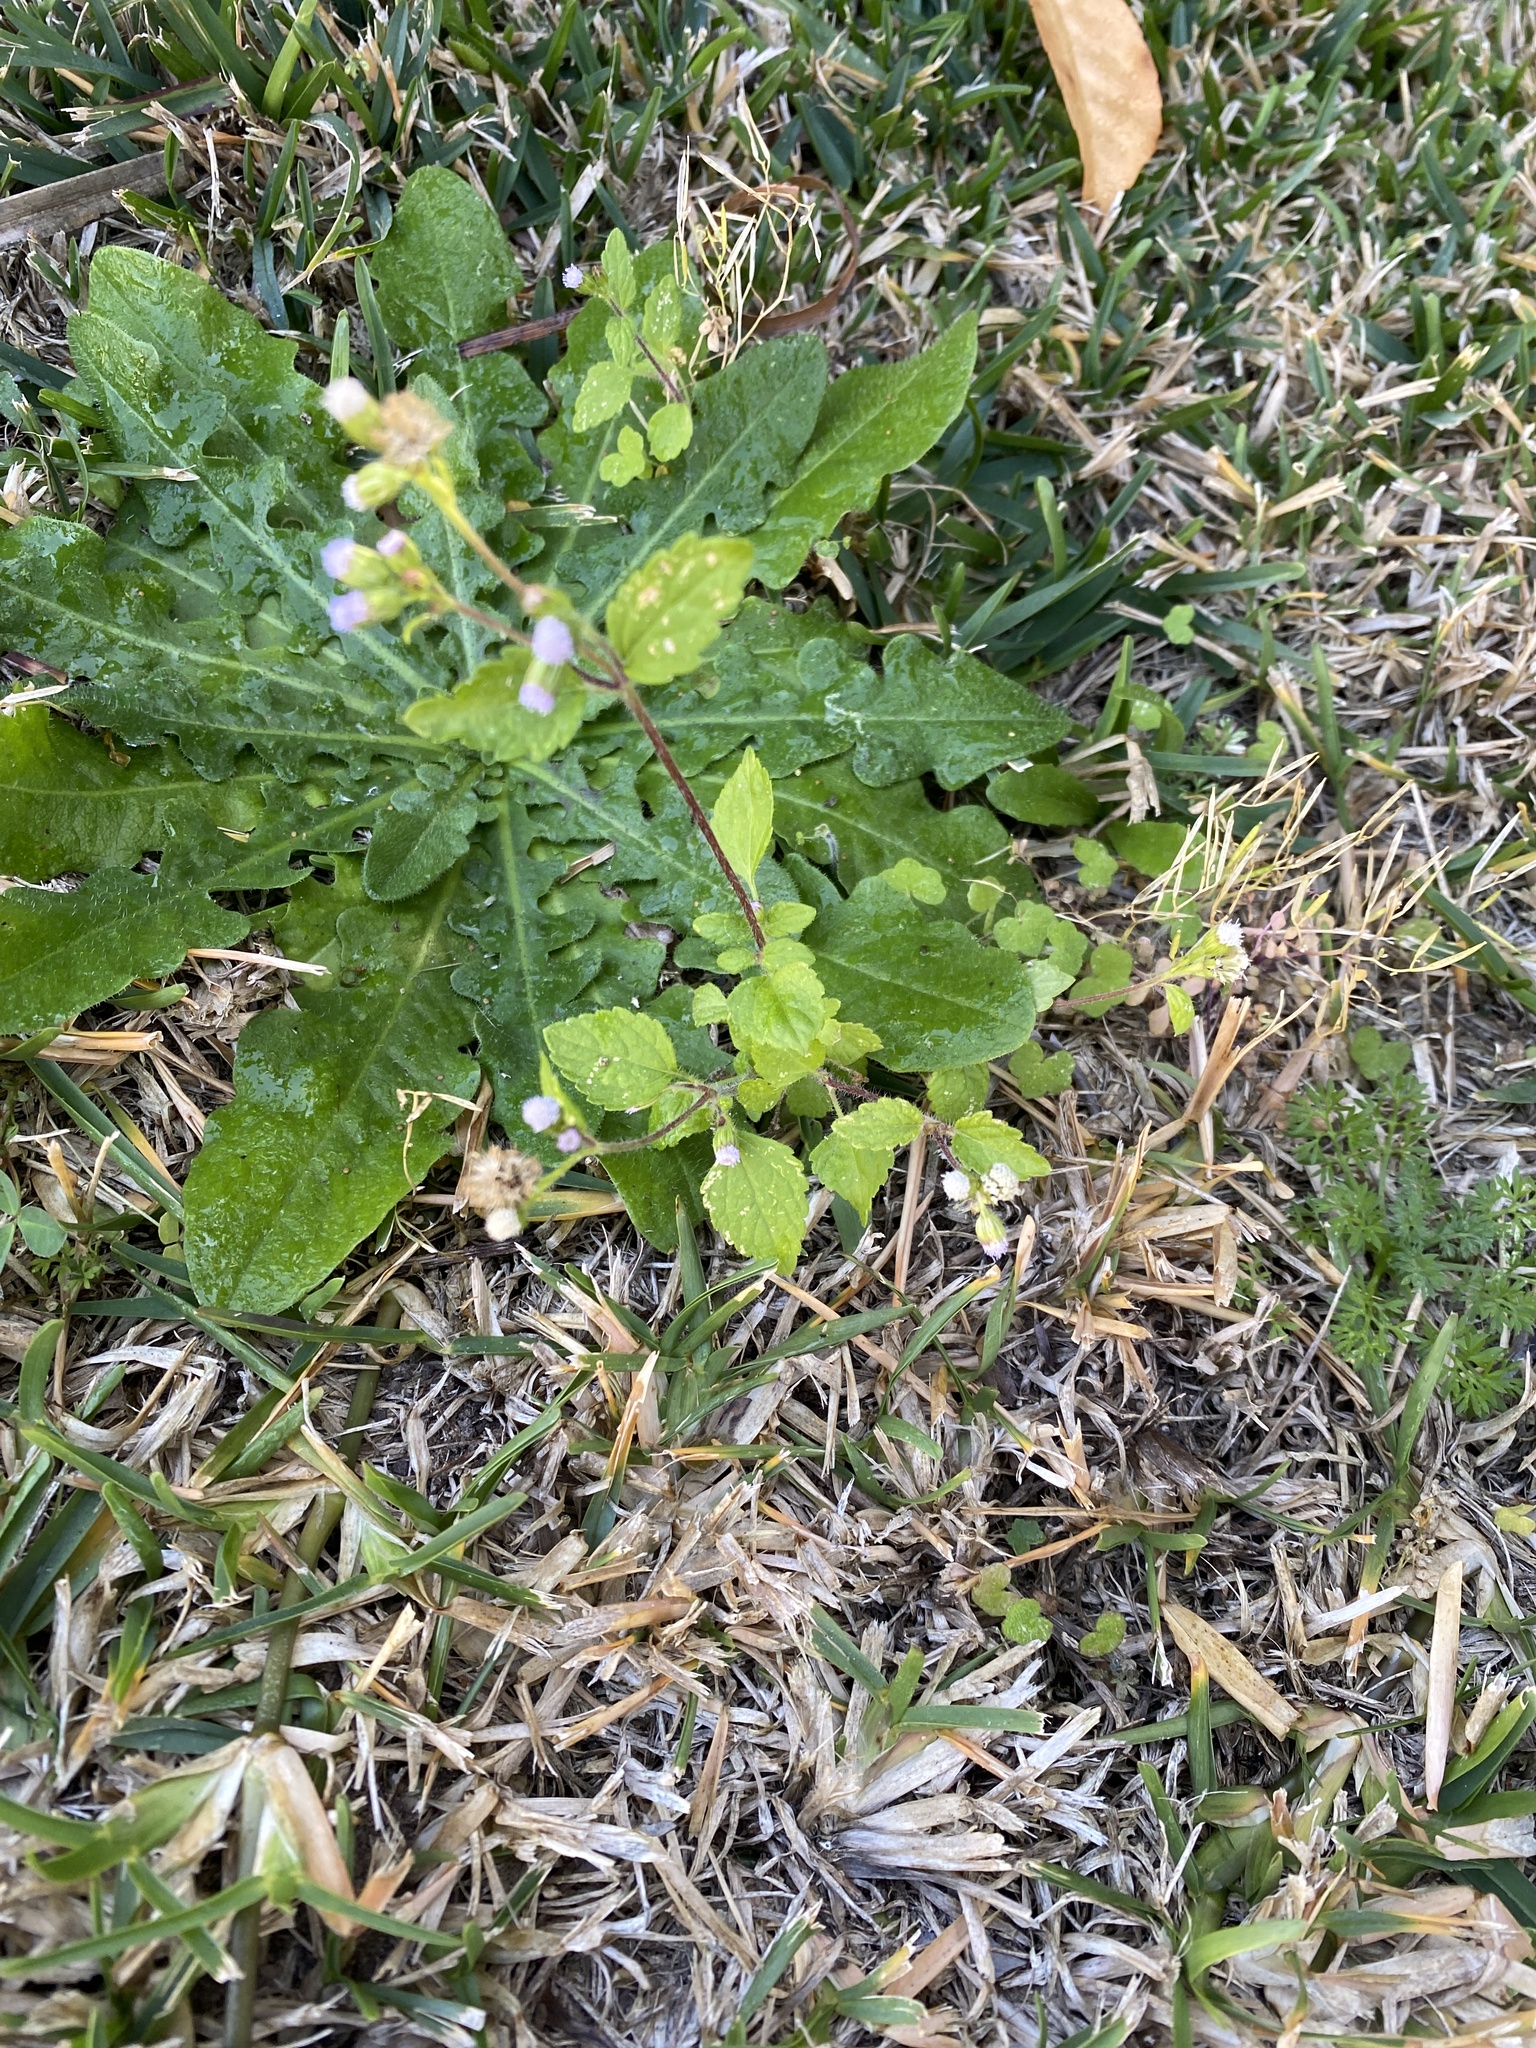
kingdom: Plantae
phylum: Tracheophyta
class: Magnoliopsida
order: Asterales
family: Asteraceae
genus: Ageratum
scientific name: Ageratum conyzoides
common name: Tropical whiteweed
